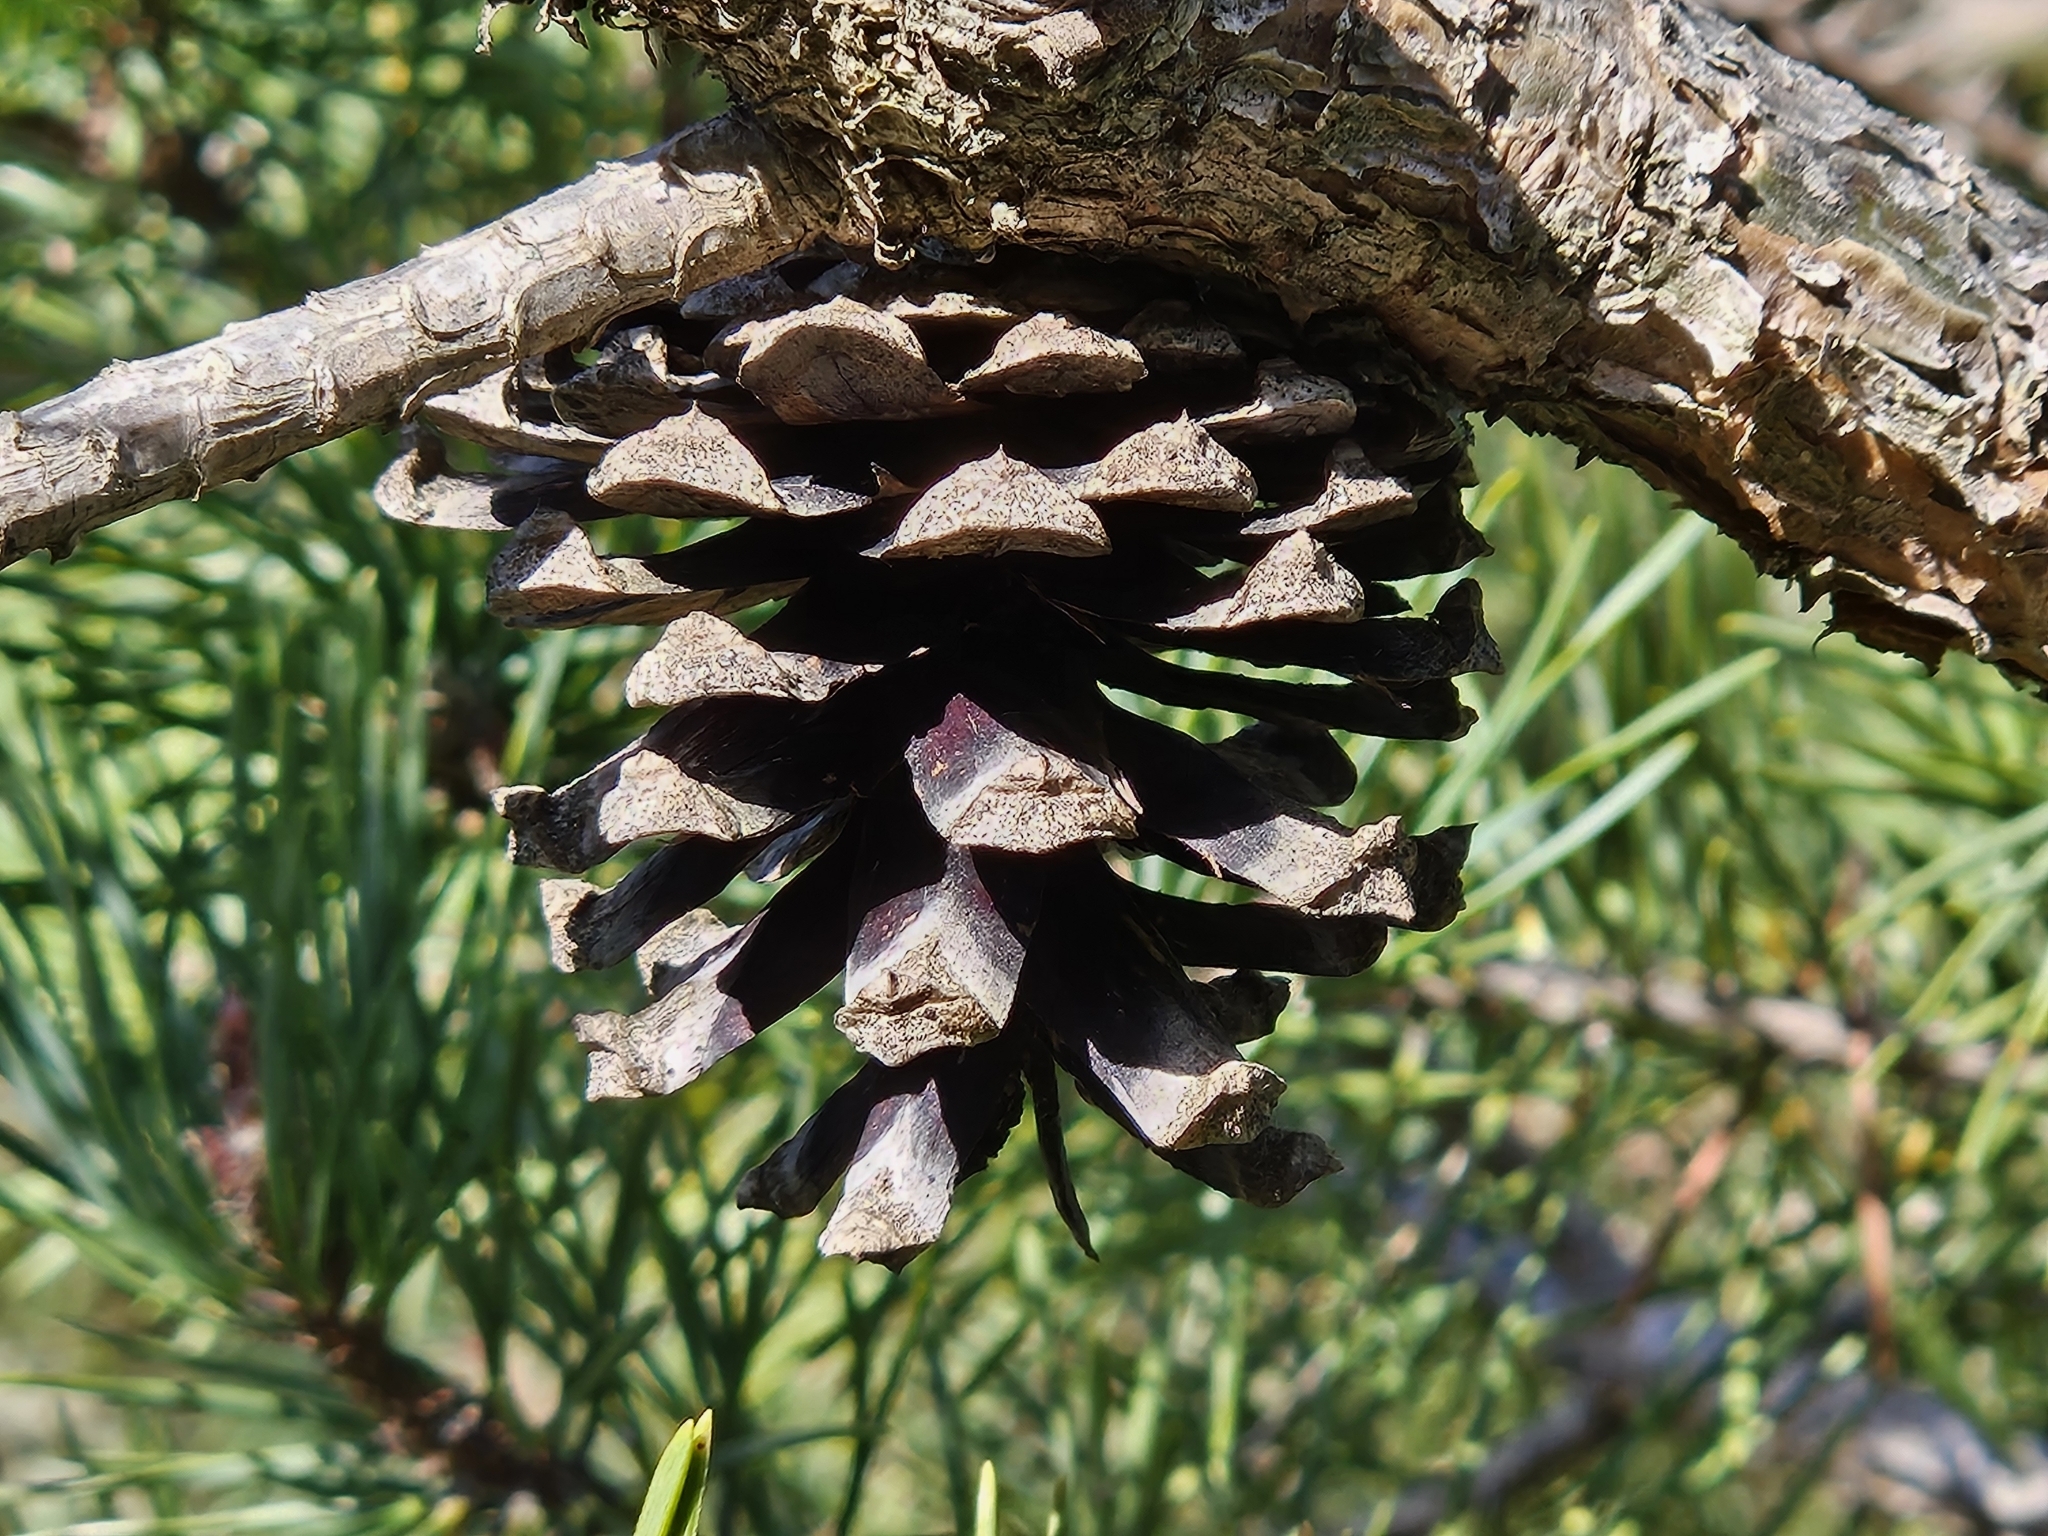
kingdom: Plantae
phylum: Tracheophyta
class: Pinopsida
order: Pinales
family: Pinaceae
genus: Pinus
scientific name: Pinus sylvestris
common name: Scots pine
